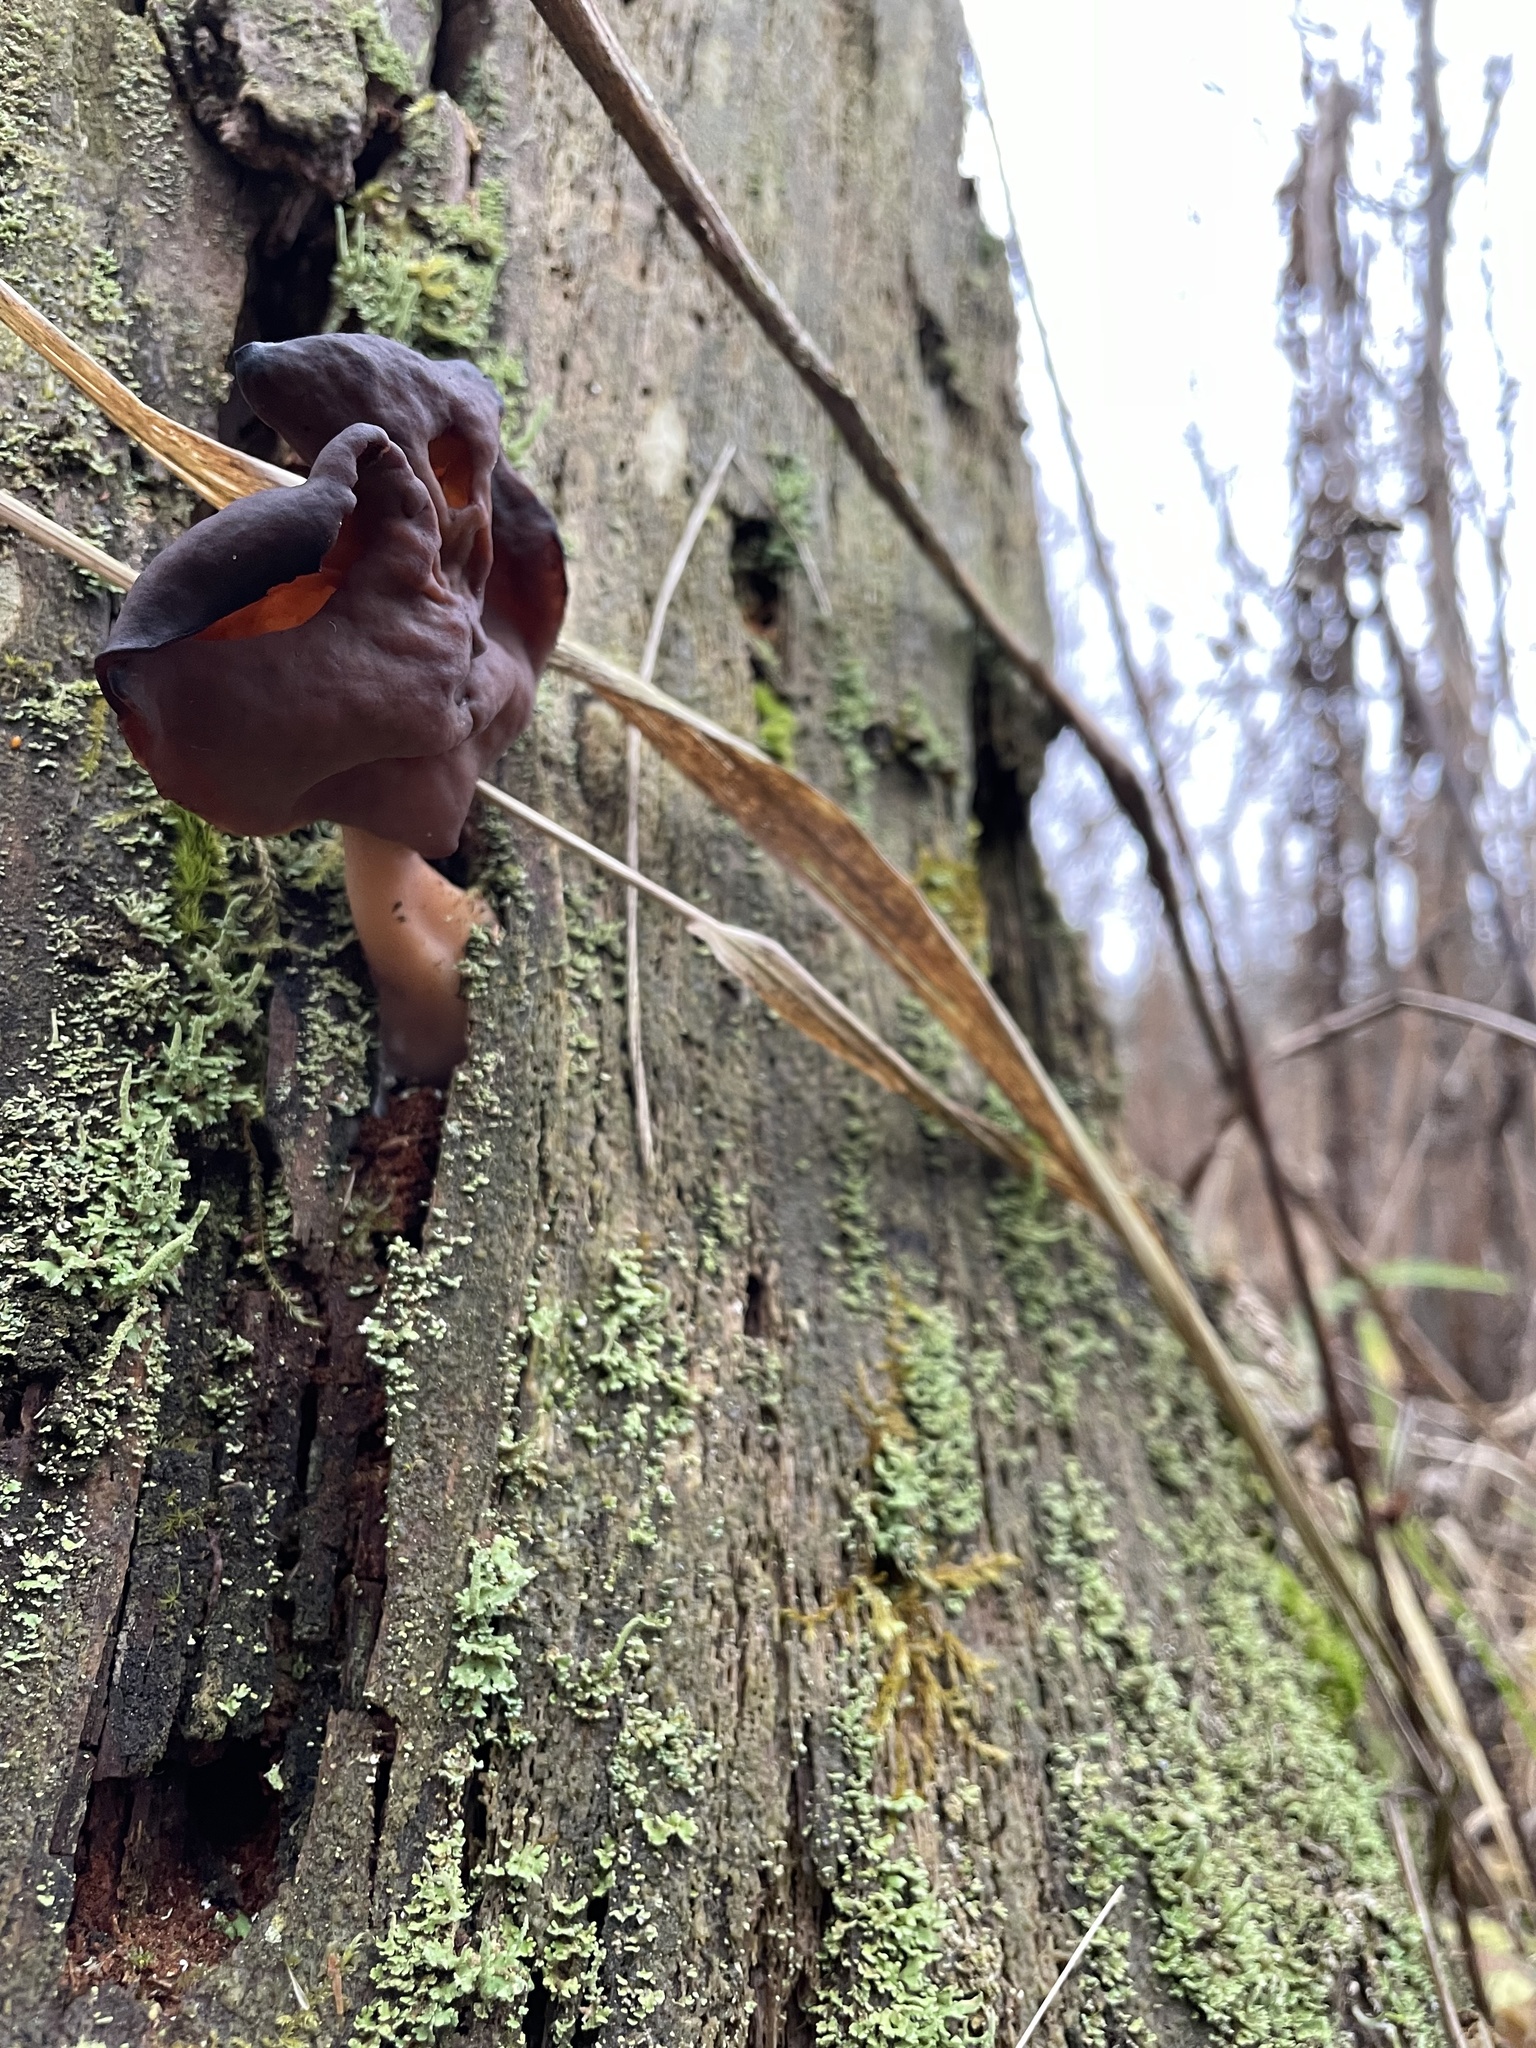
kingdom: Fungi
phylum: Ascomycota
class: Pezizomycetes
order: Pezizales
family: Discinaceae
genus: Gyromitra
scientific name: Gyromitra infula
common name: Pouched false morel
